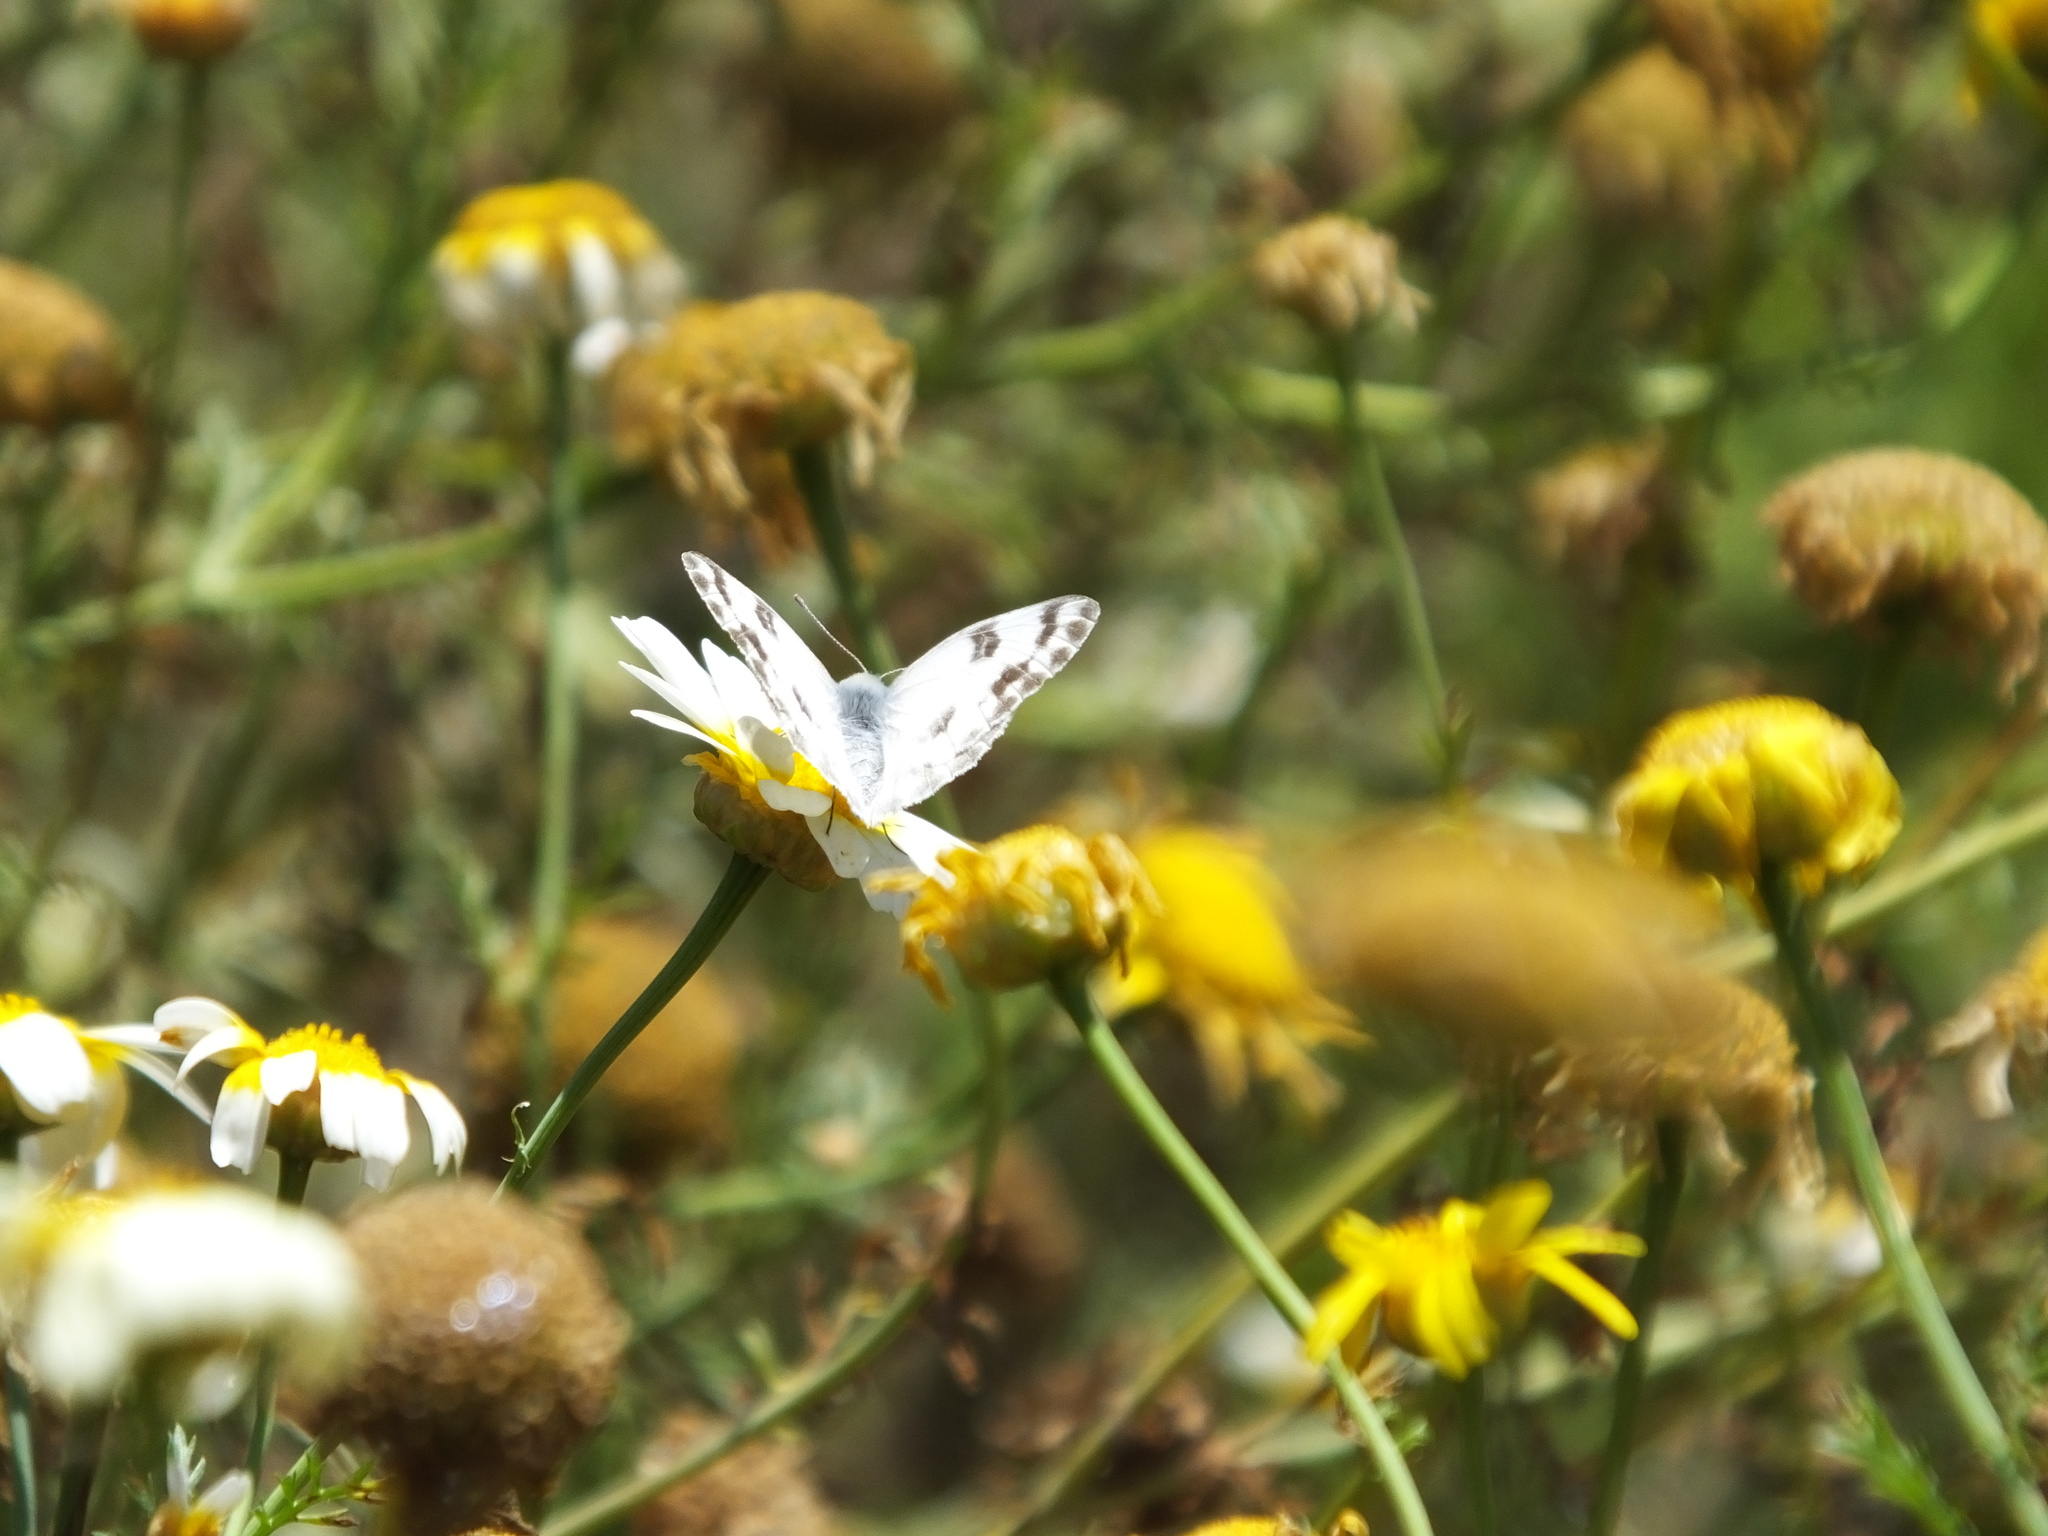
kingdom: Animalia
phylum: Arthropoda
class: Insecta
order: Lepidoptera
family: Pieridae
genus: Pontia
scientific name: Pontia protodice
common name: Checkered white
